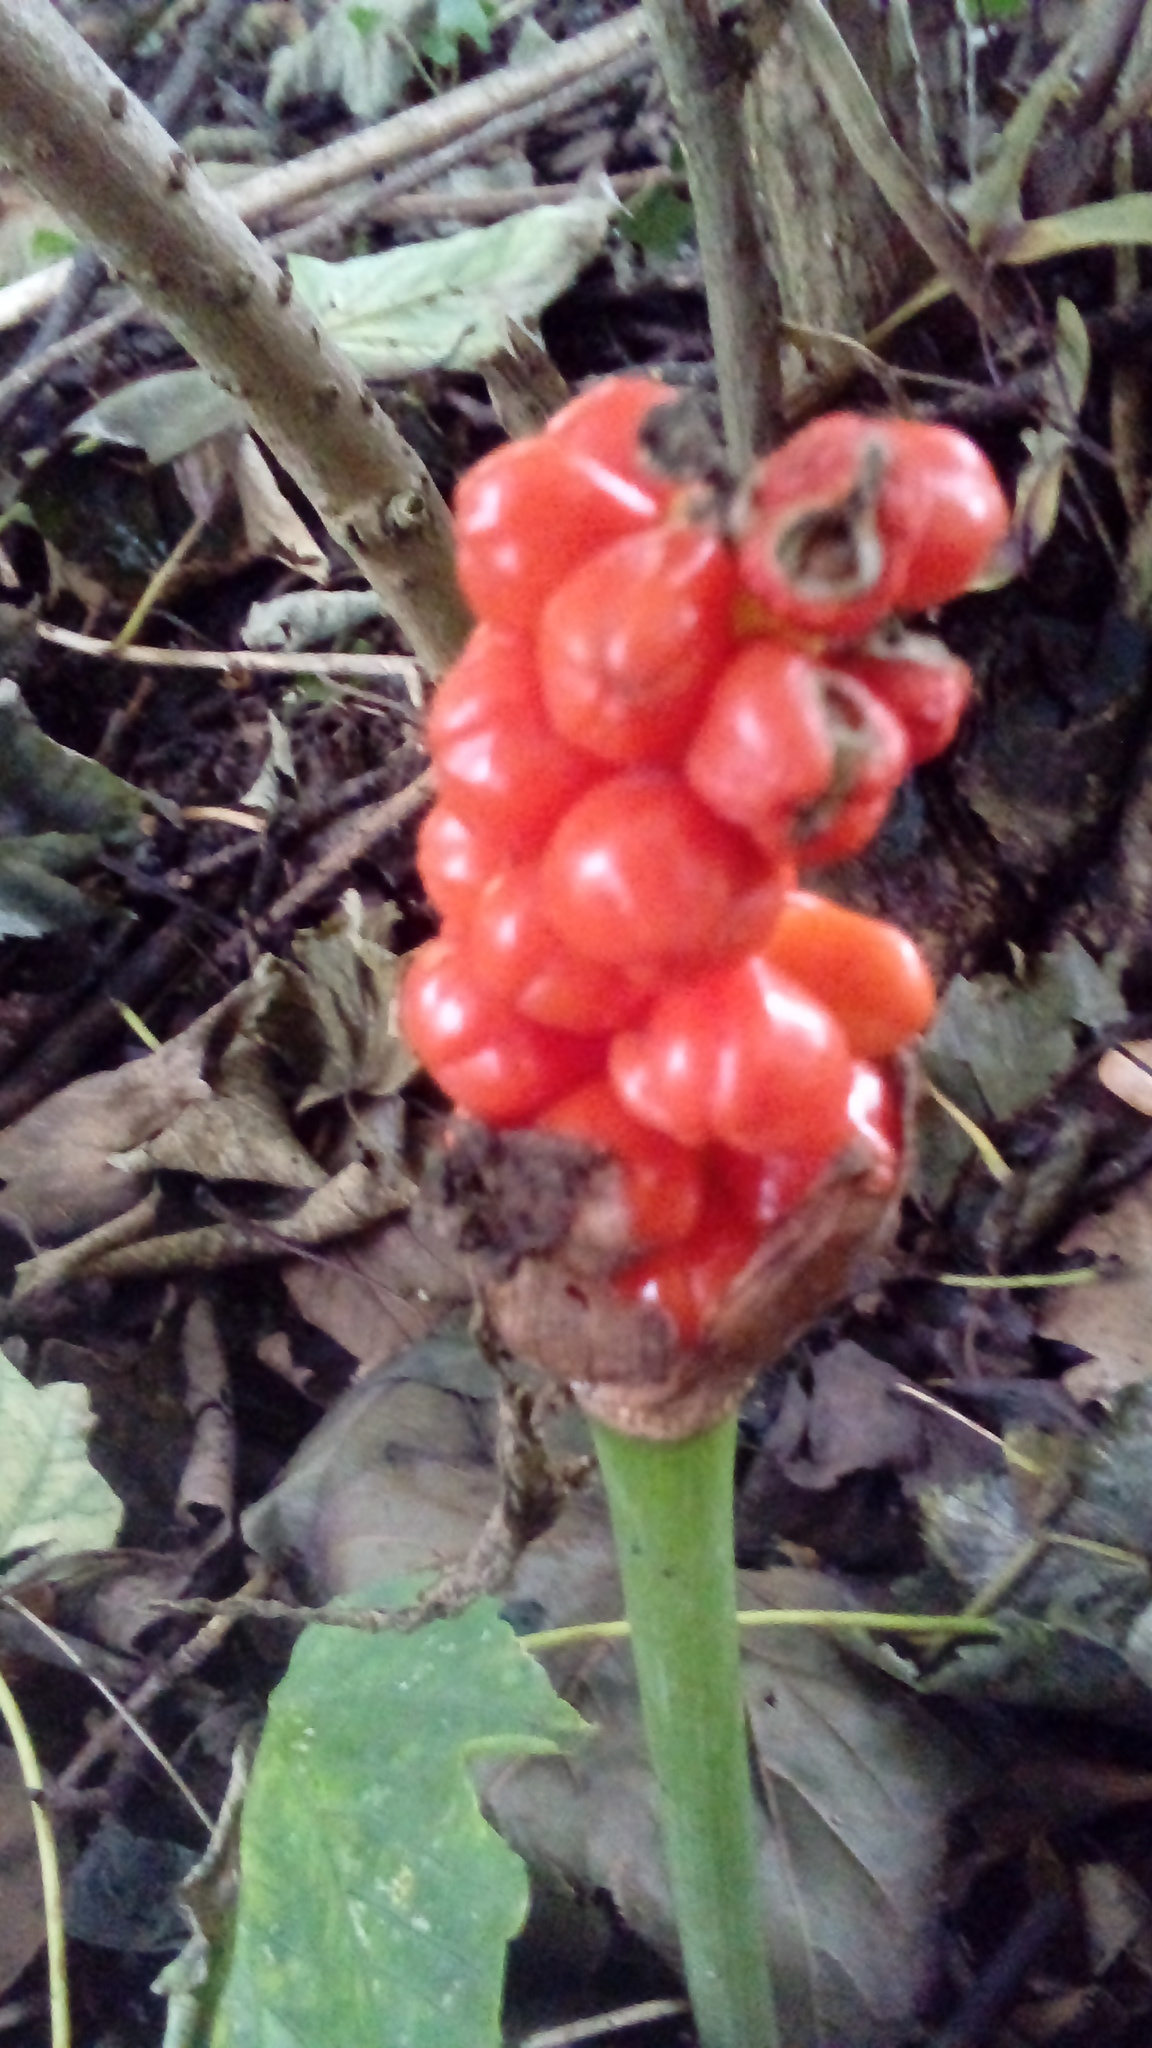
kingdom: Plantae
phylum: Tracheophyta
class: Liliopsida
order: Alismatales
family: Araceae
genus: Arum
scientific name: Arum maculatum
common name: Lords-and-ladies
